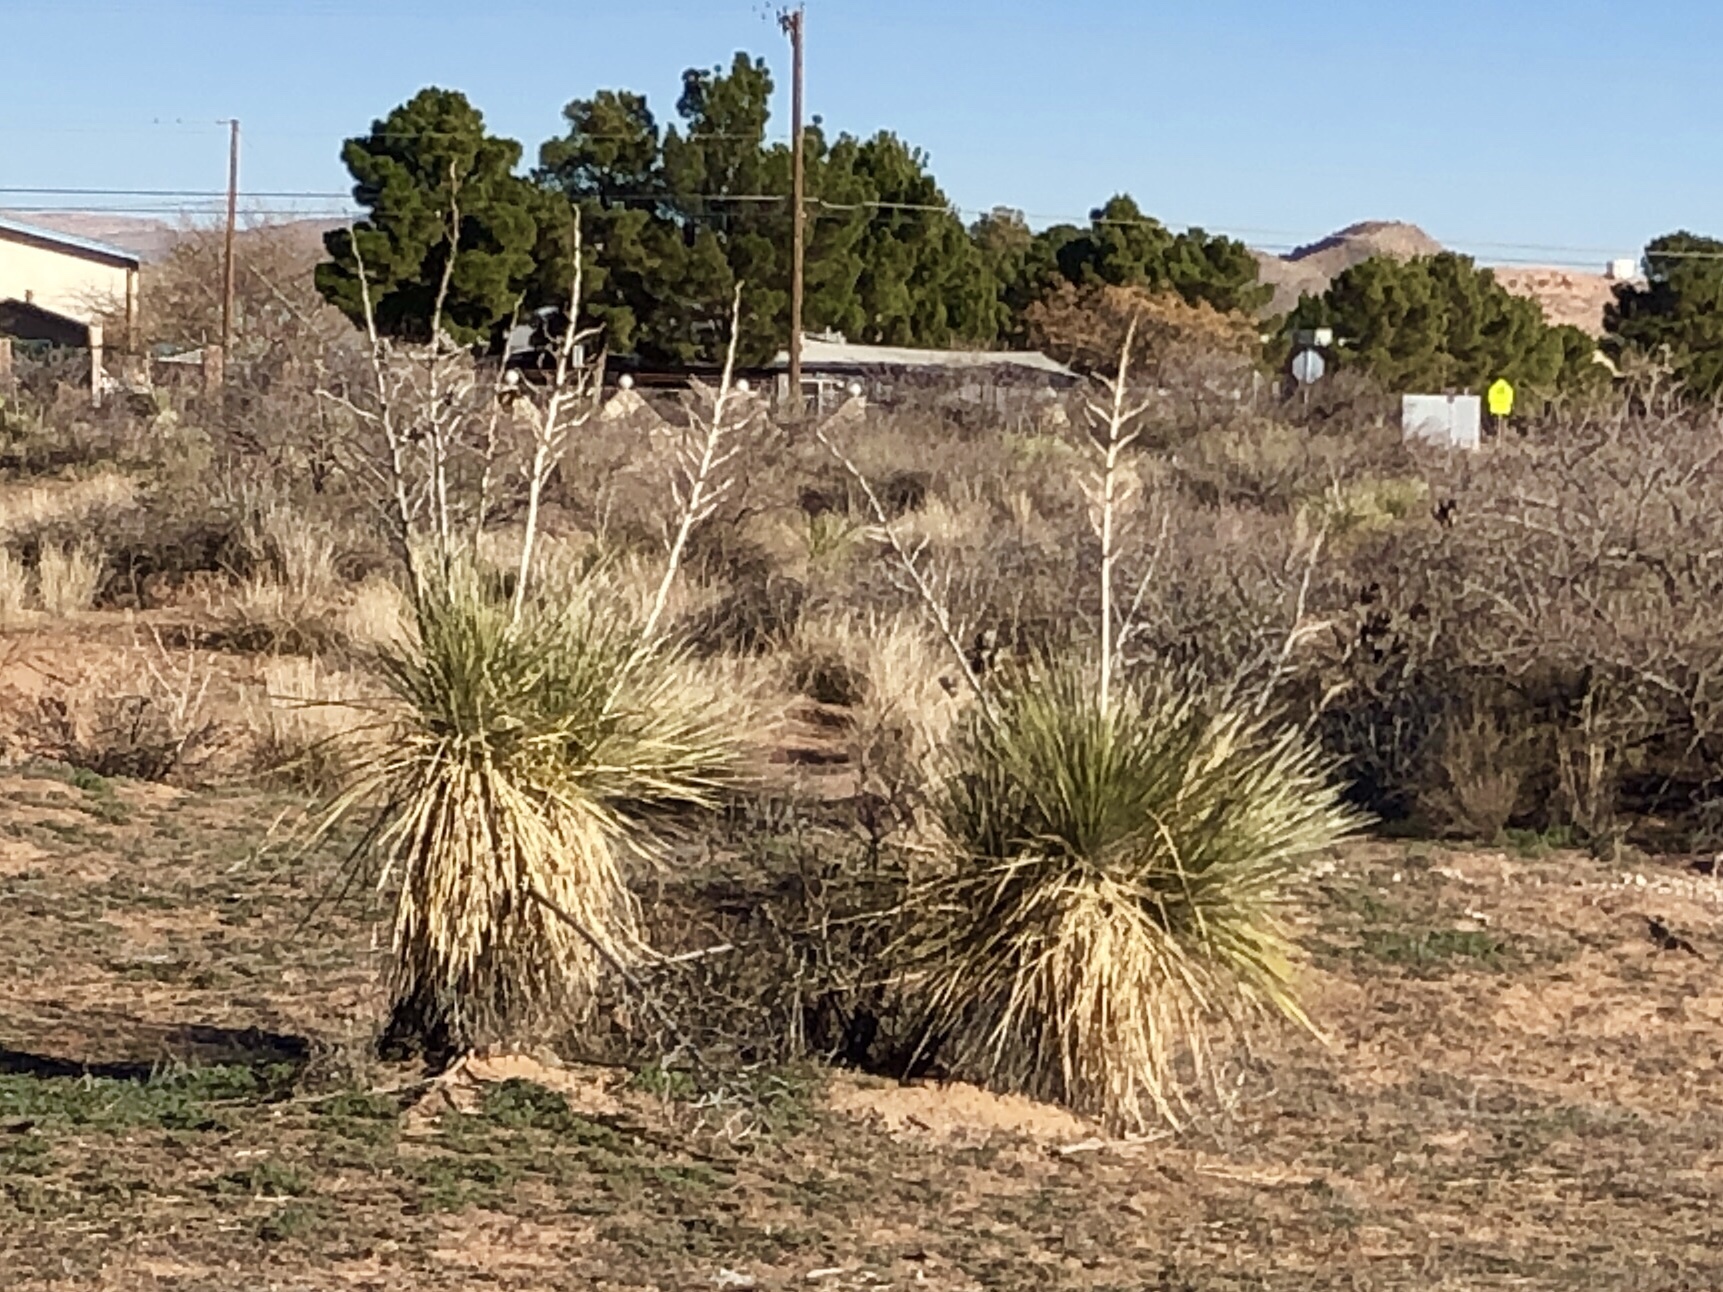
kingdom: Plantae
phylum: Tracheophyta
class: Liliopsida
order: Asparagales
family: Asparagaceae
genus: Yucca
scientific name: Yucca elata
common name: Palmella
